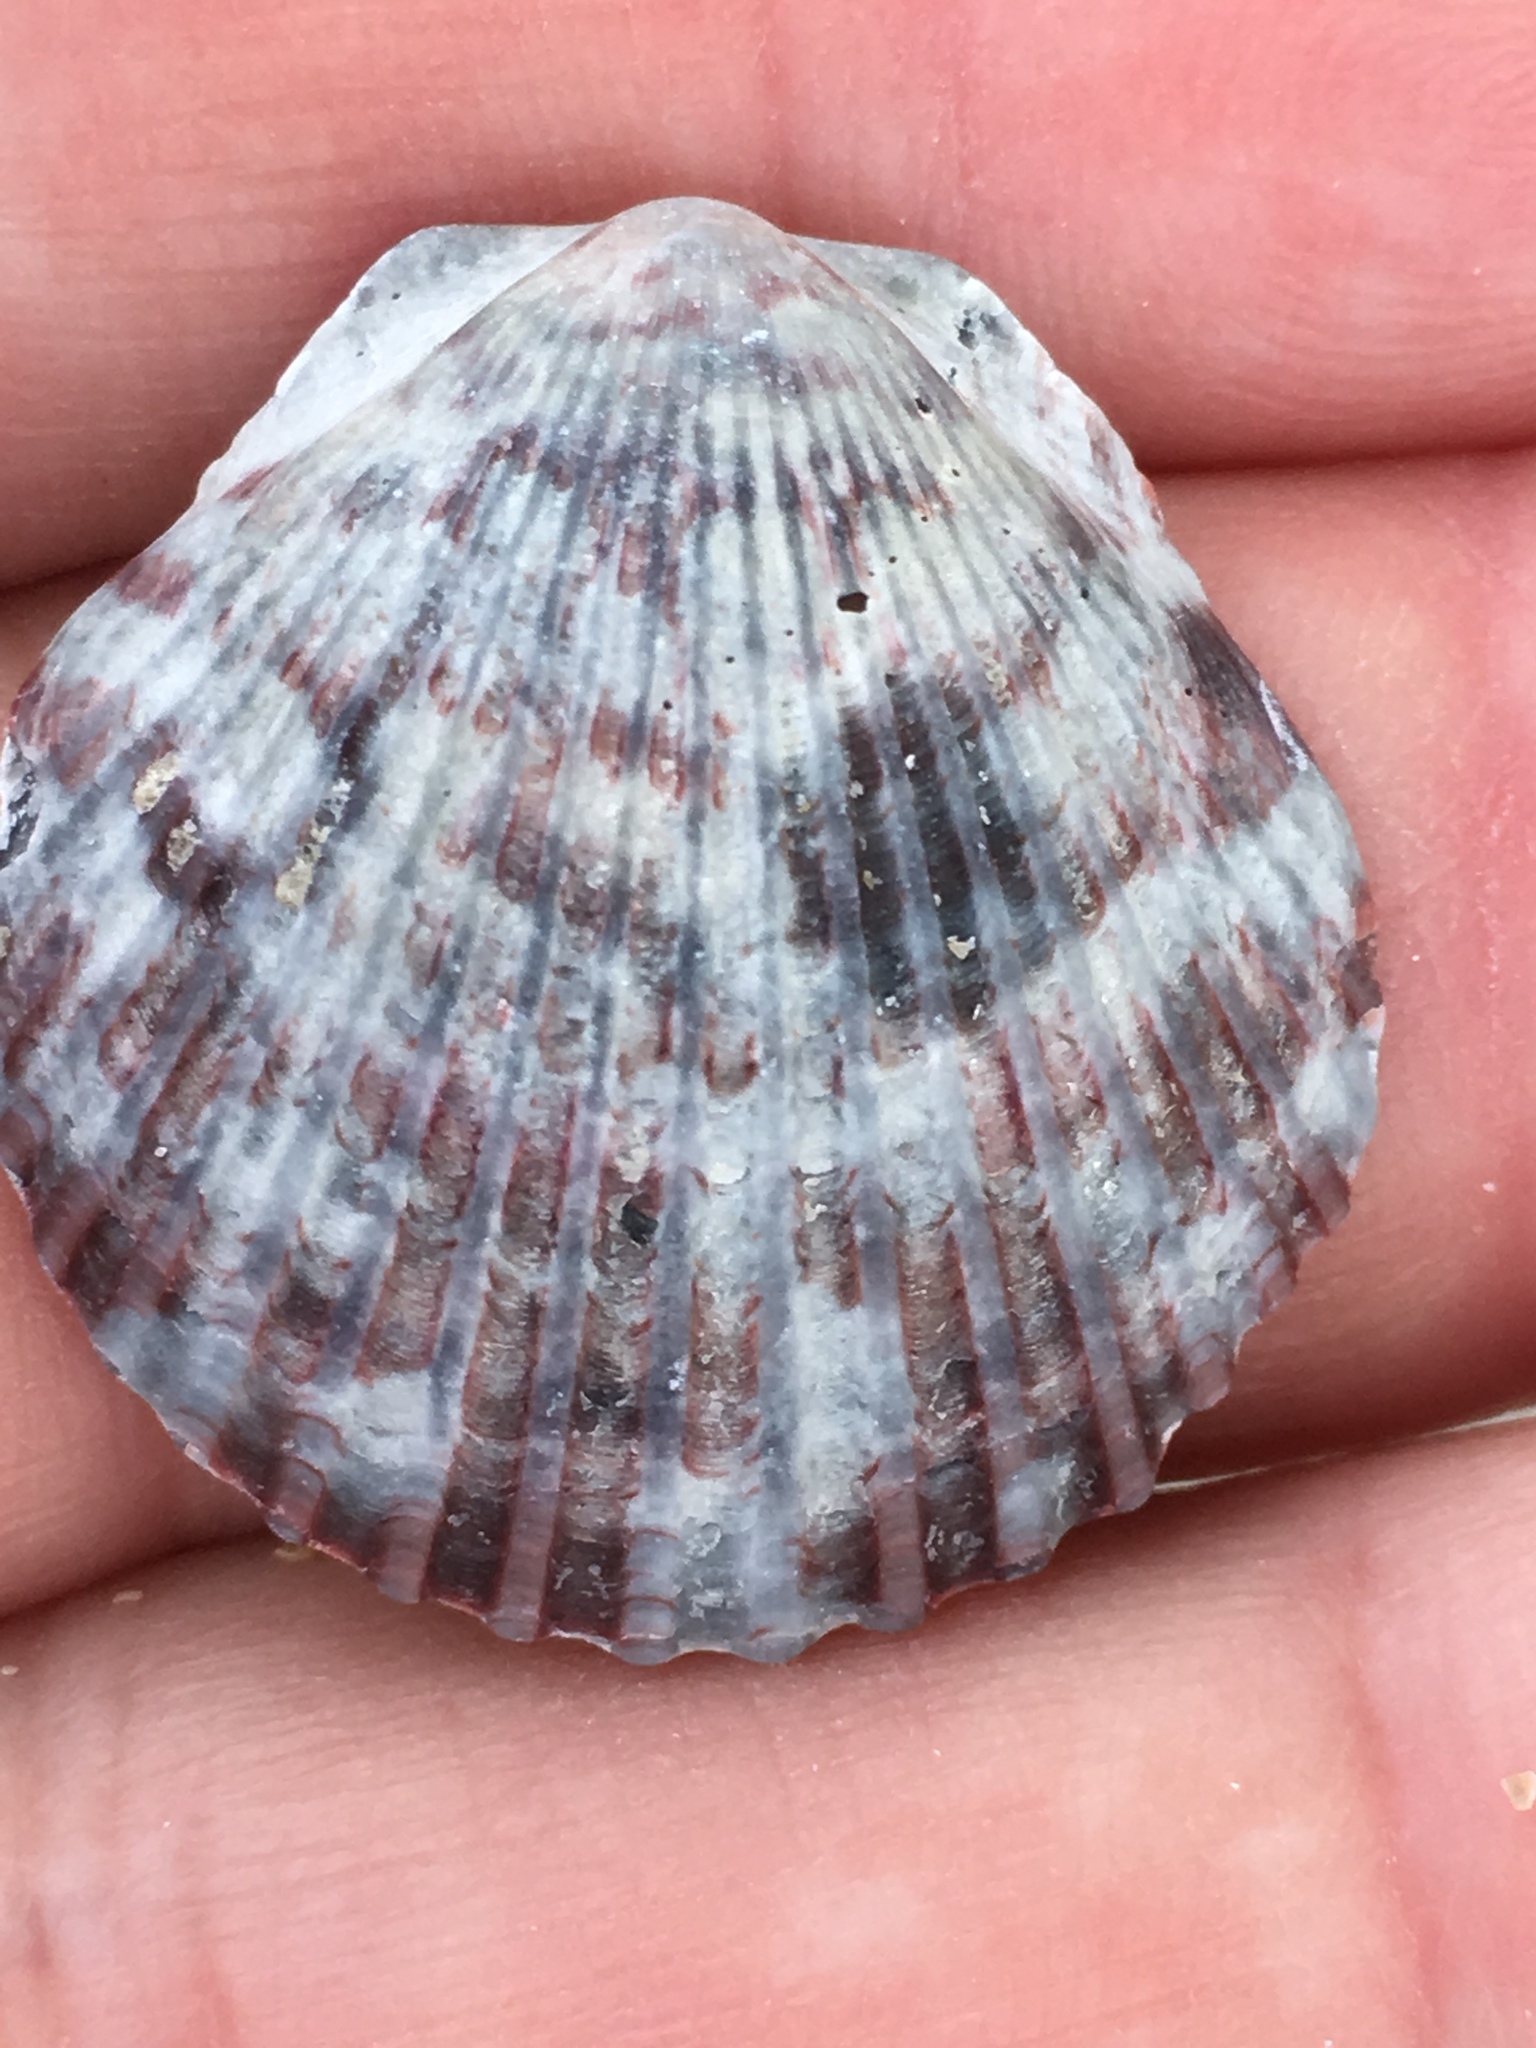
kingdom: Animalia
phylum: Mollusca
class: Bivalvia
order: Pectinida
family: Pectinidae
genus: Argopecten
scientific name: Argopecten gibbus
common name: Atlantic calico scallop
